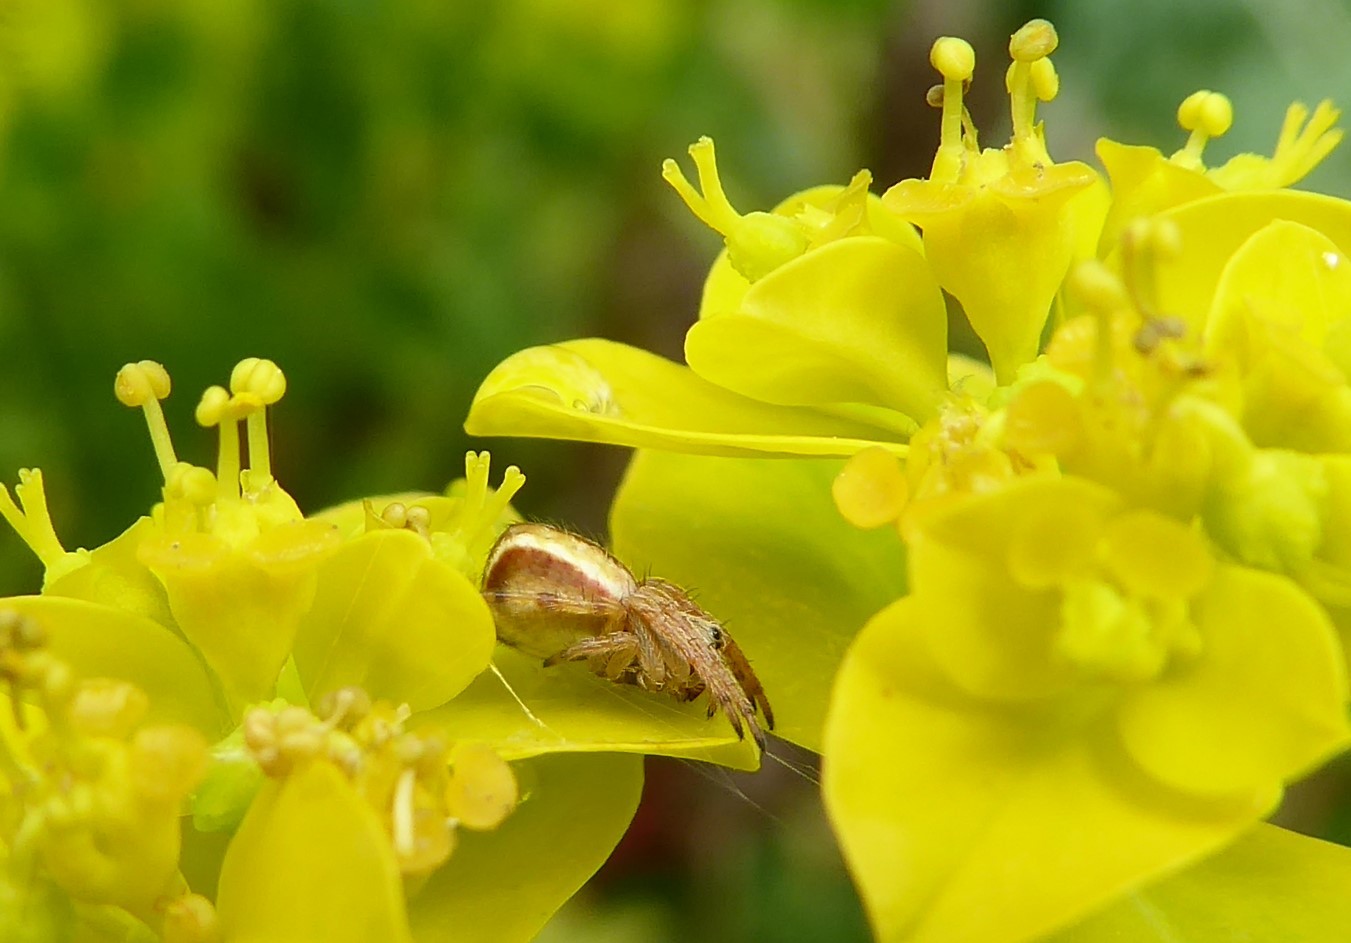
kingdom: Animalia
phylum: Arthropoda
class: Arachnida
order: Araneae
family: Araneidae
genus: Salsa
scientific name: Salsa fuliginata
